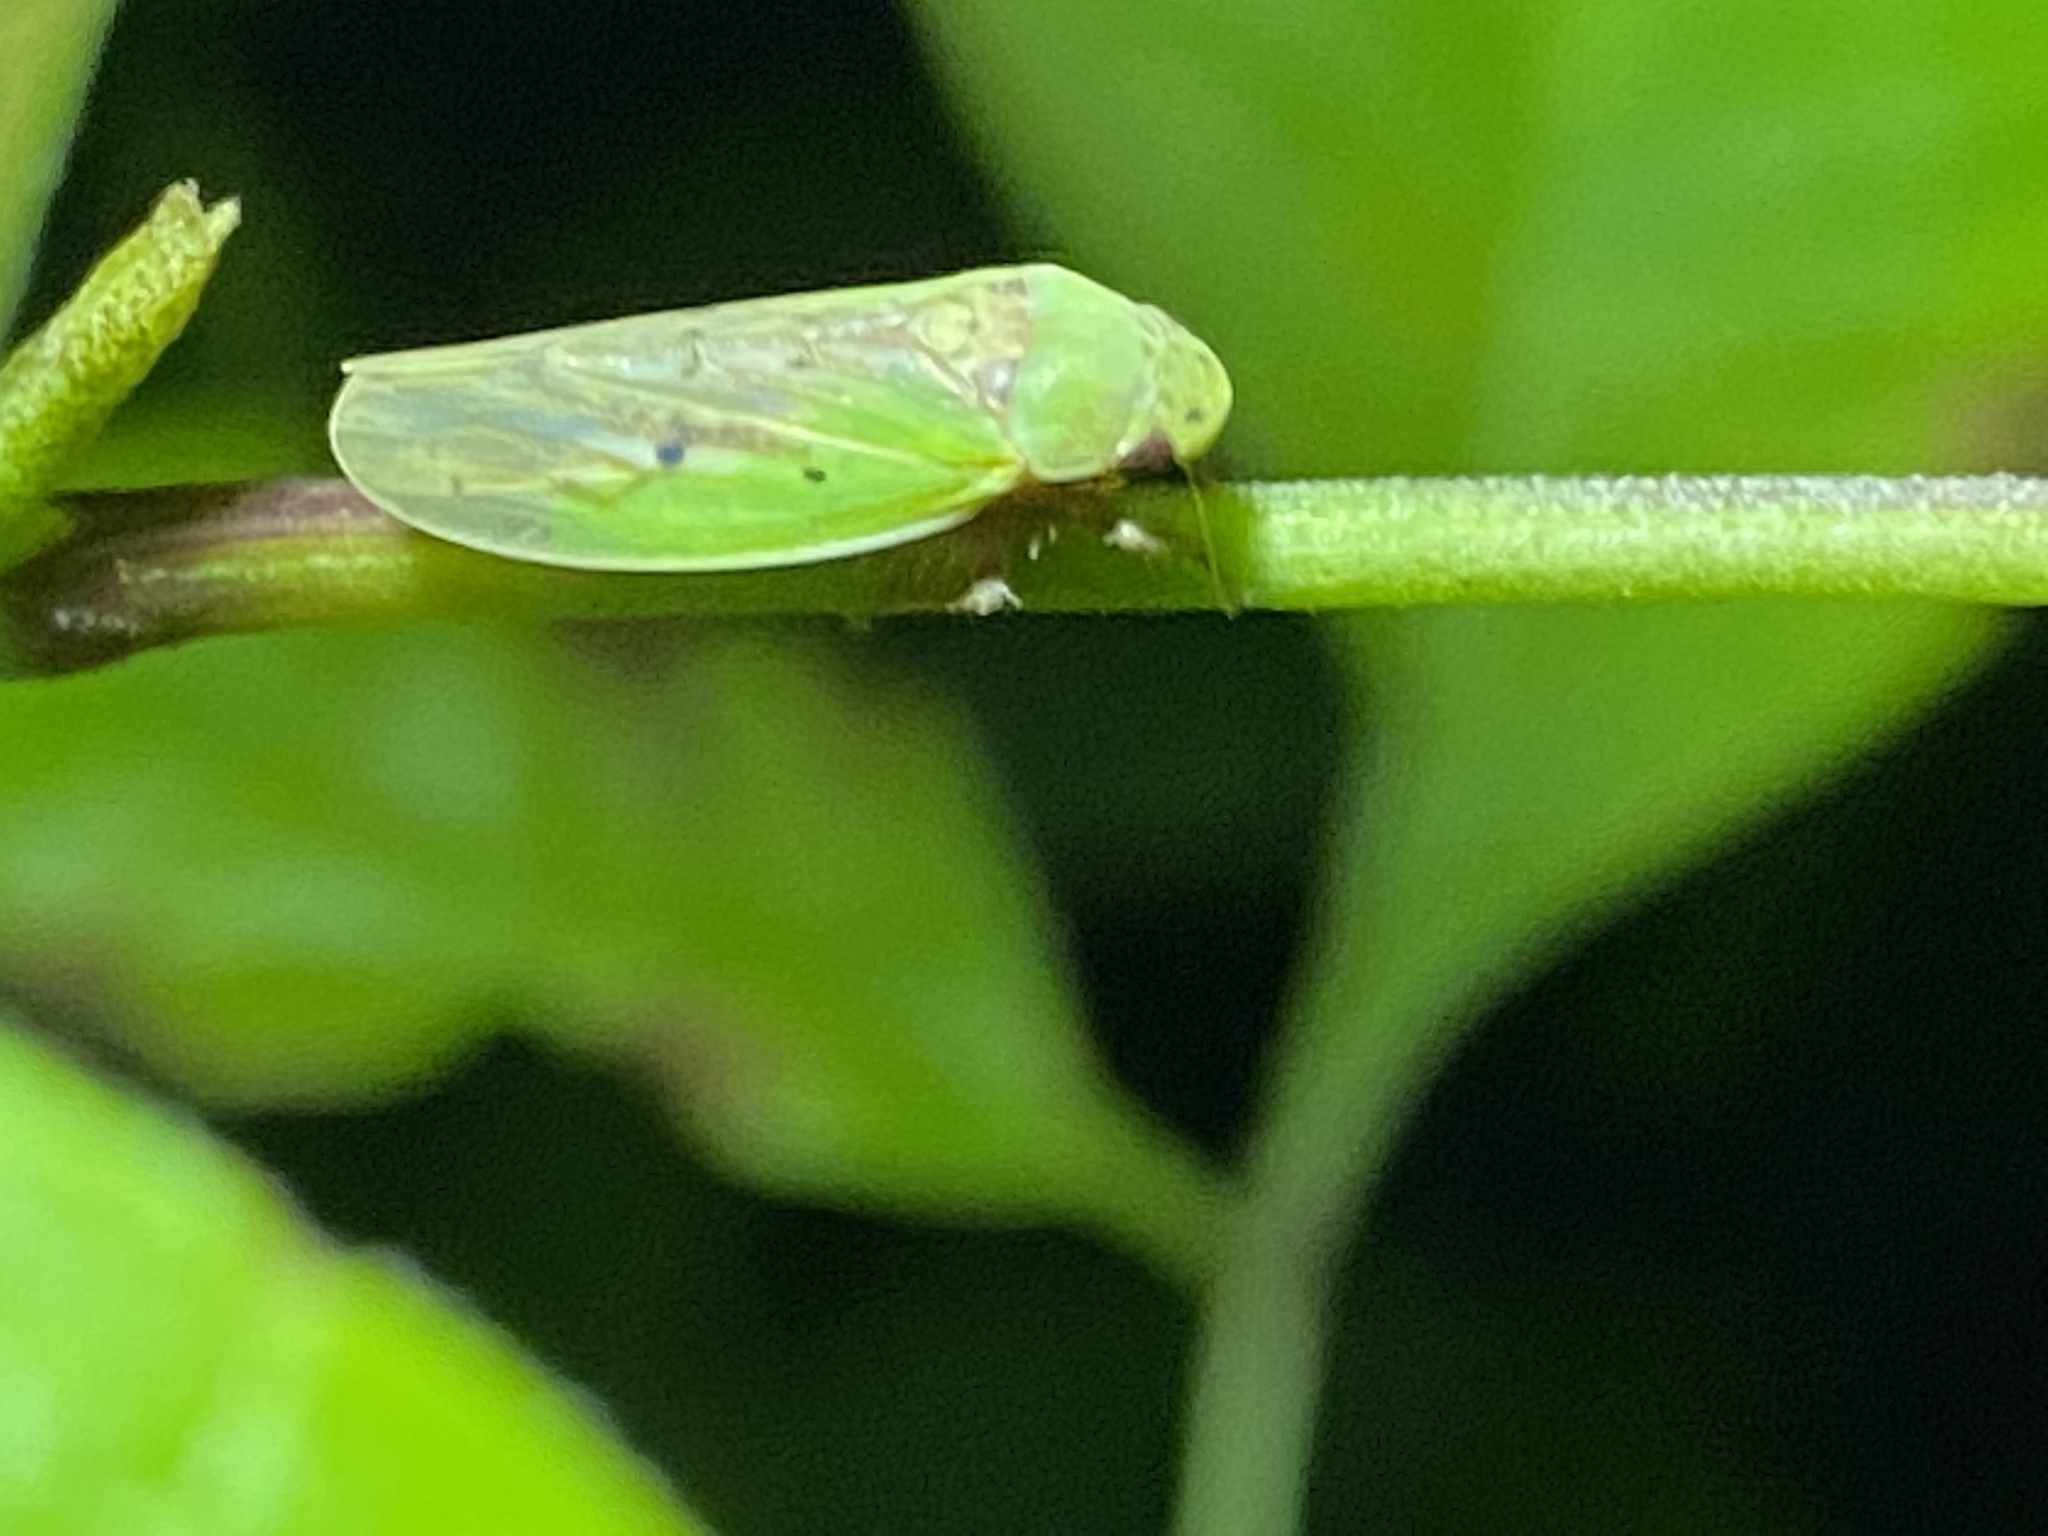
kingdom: Animalia
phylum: Arthropoda
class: Insecta
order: Hemiptera
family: Cicadellidae
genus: Ponana
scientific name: Ponana pectoralis
